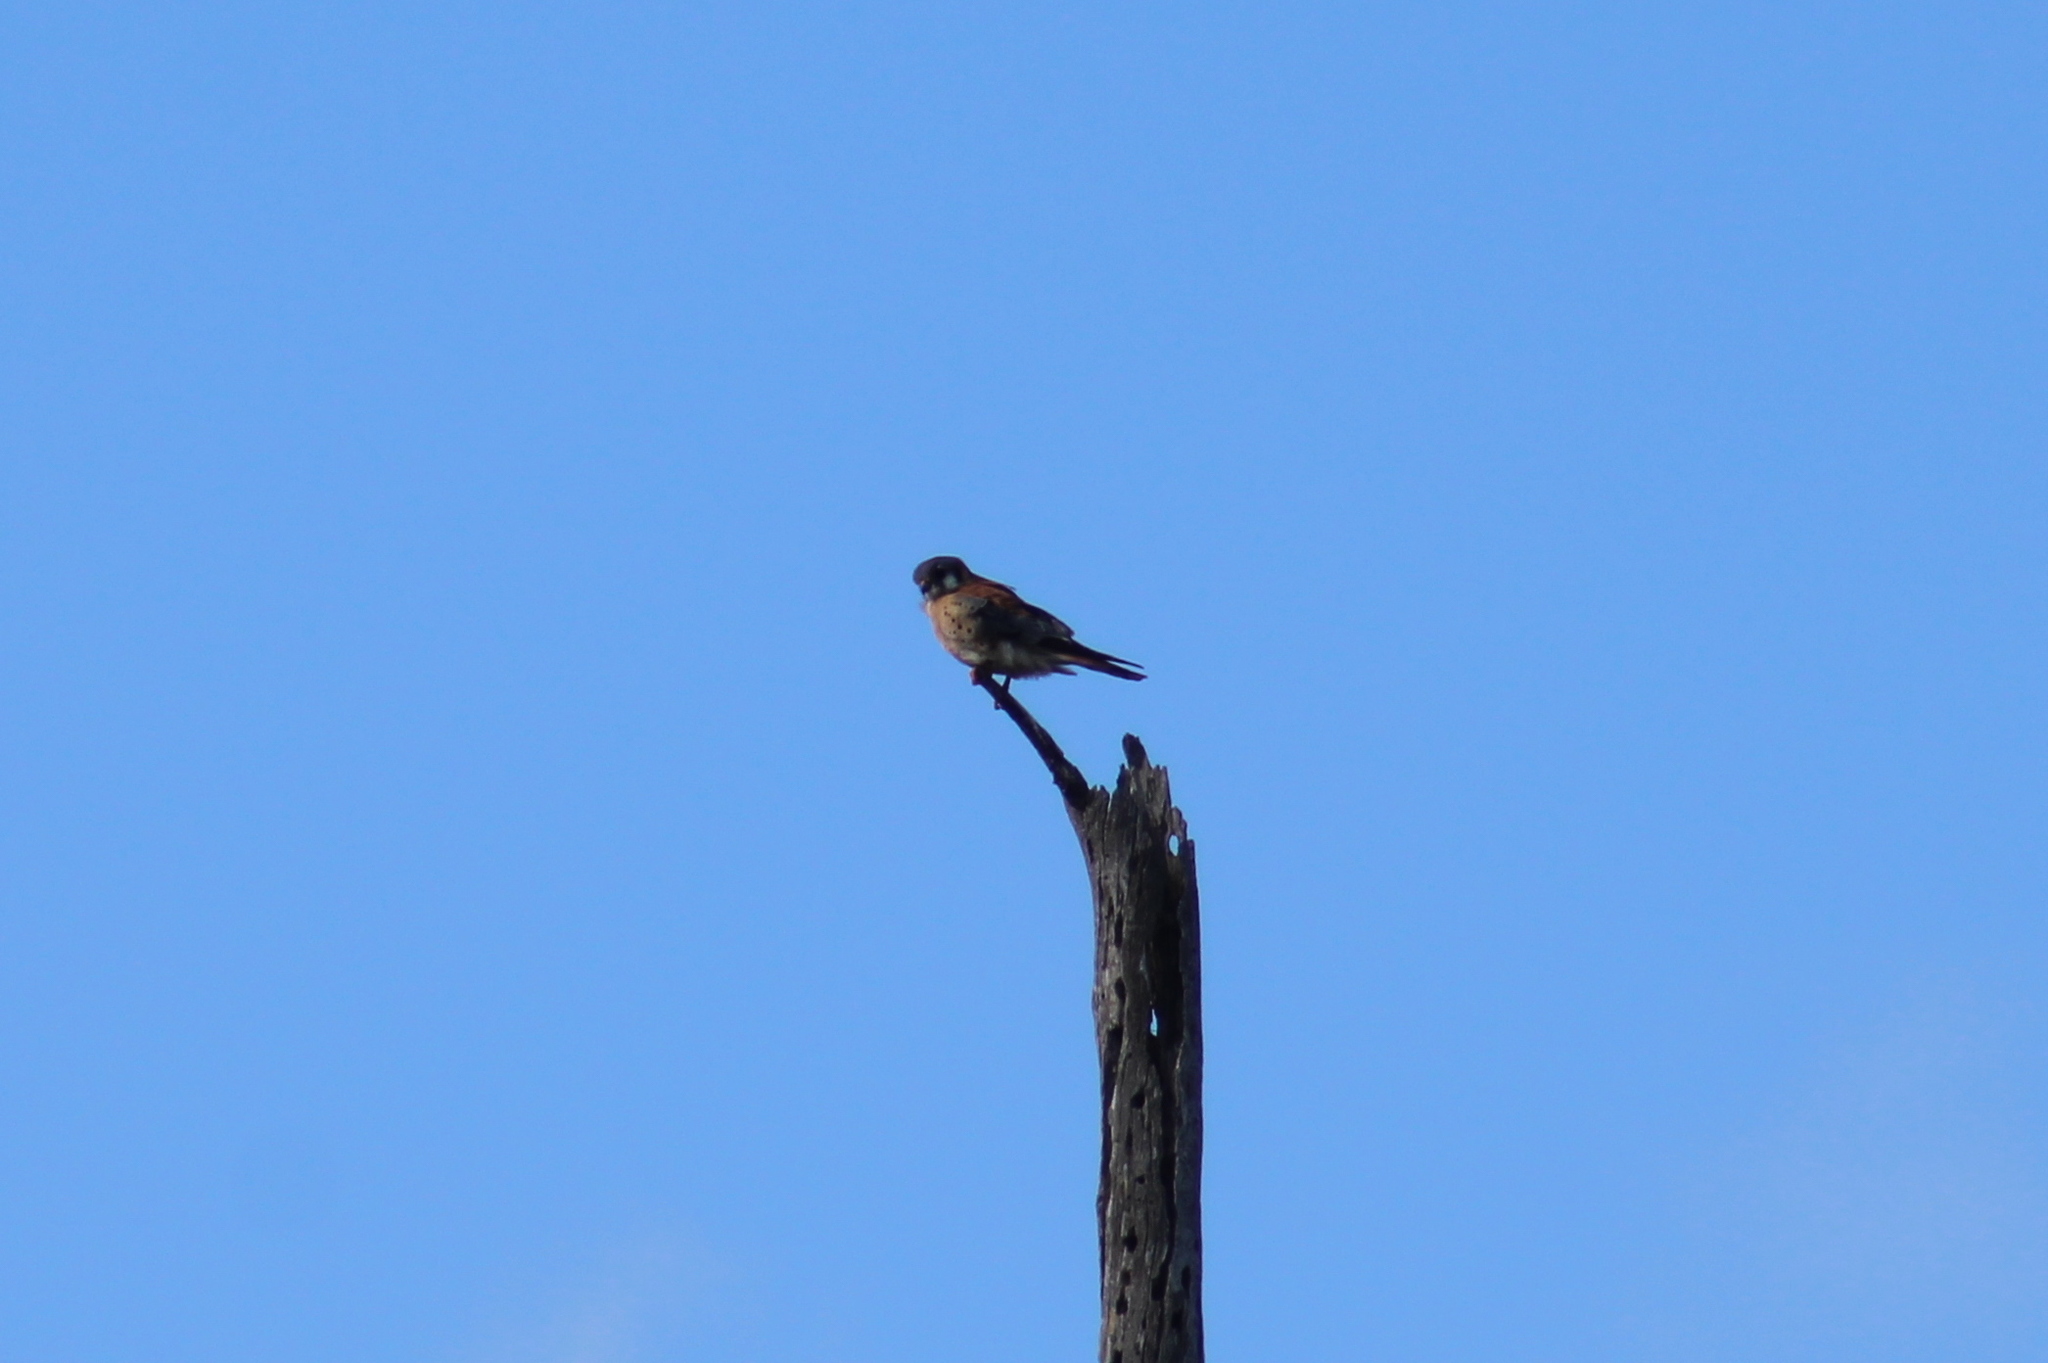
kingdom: Animalia
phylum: Chordata
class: Aves
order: Falconiformes
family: Falconidae
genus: Falco
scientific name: Falco sparverius
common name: American kestrel
